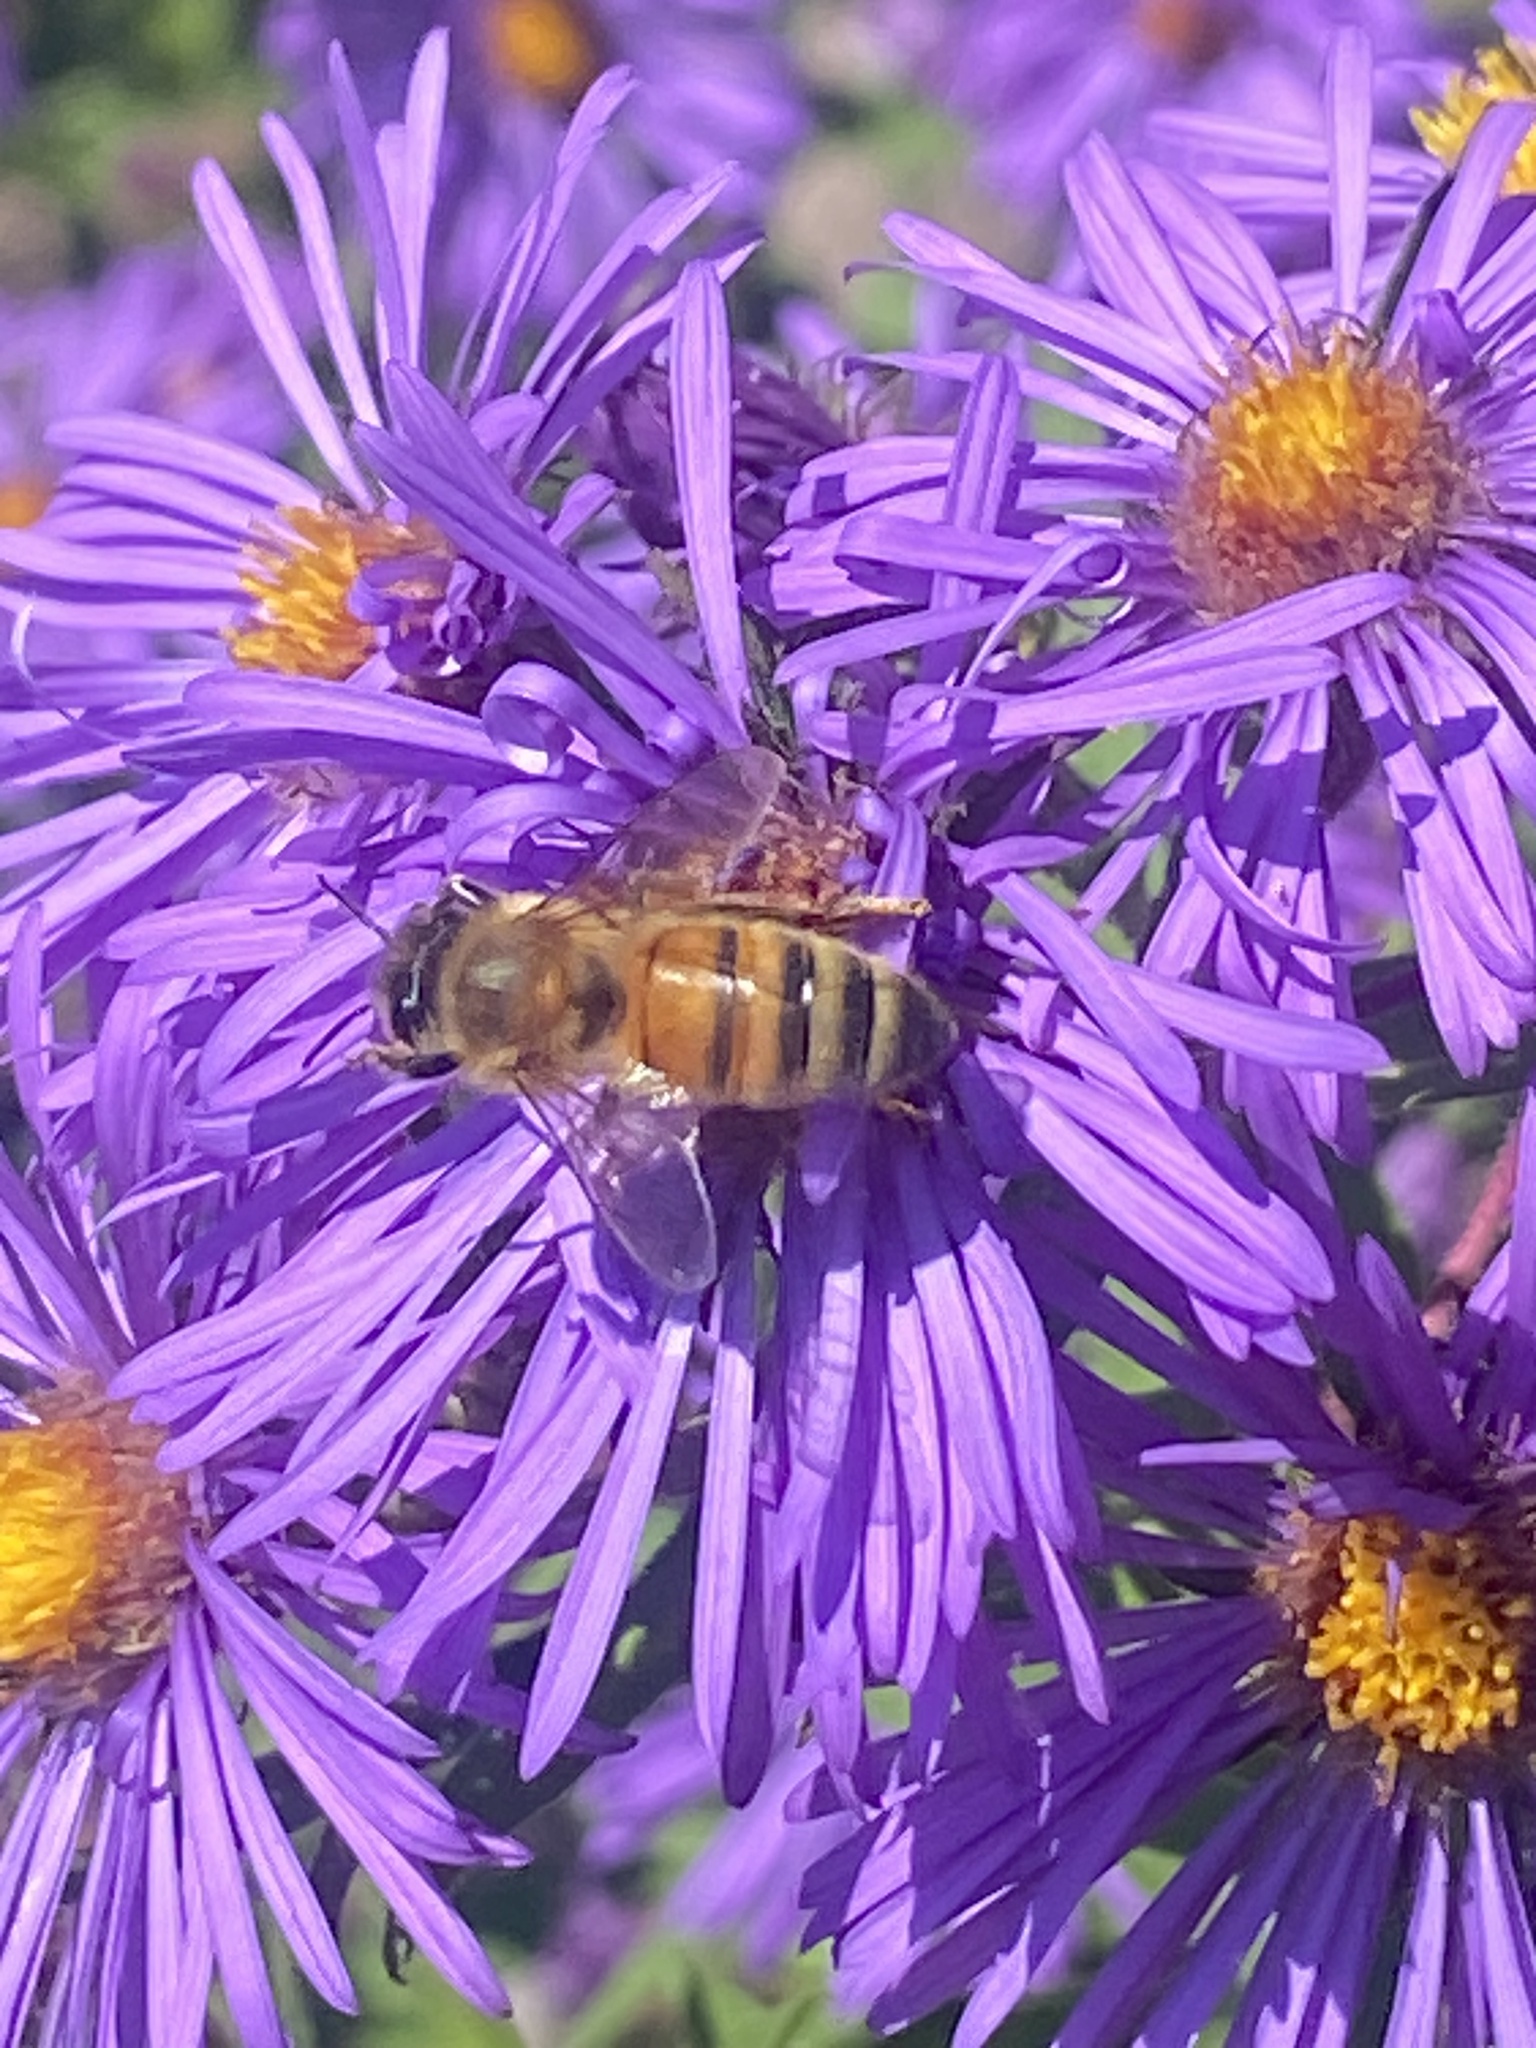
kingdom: Animalia
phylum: Arthropoda
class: Insecta
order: Hymenoptera
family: Apidae
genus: Apis
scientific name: Apis mellifera
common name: Honey bee
